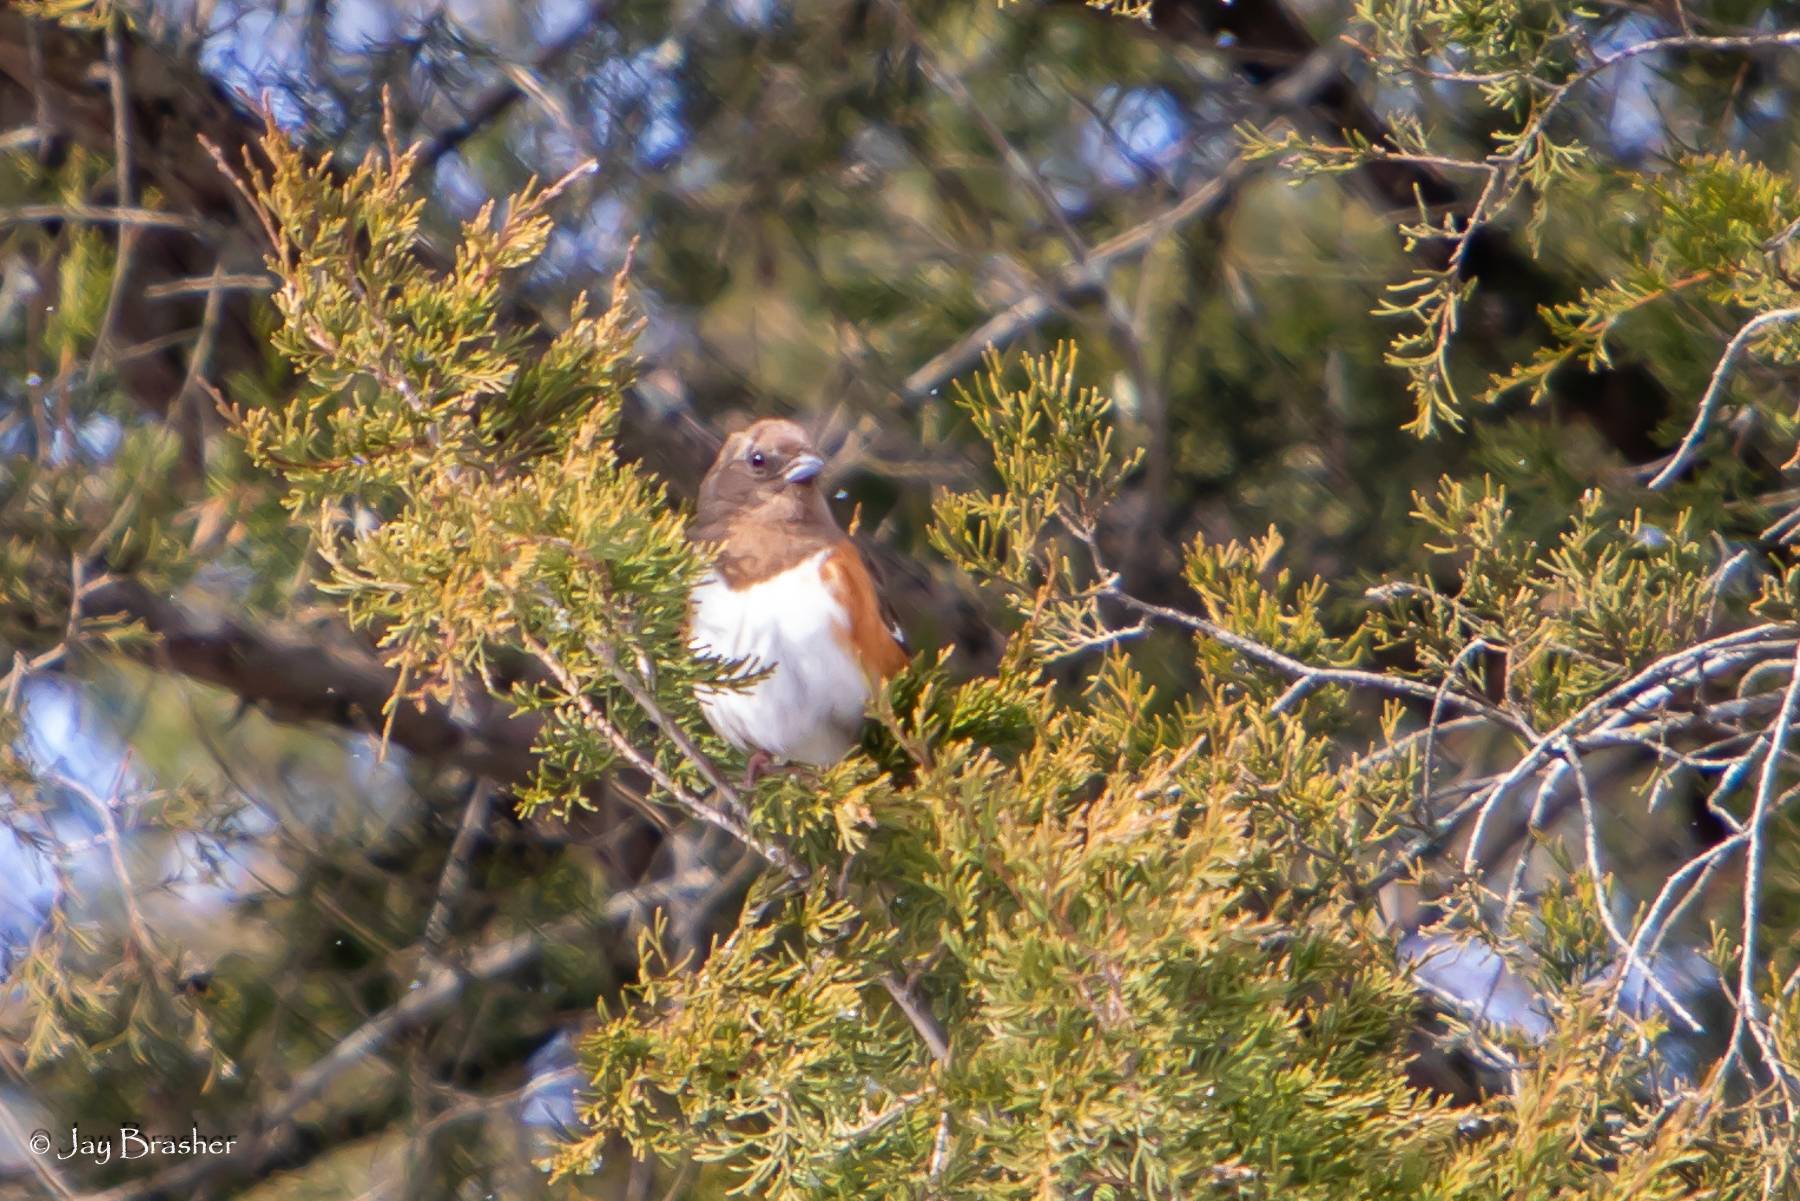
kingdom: Animalia
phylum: Chordata
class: Aves
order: Passeriformes
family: Passerellidae
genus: Pipilo
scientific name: Pipilo erythrophthalmus
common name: Eastern towhee
